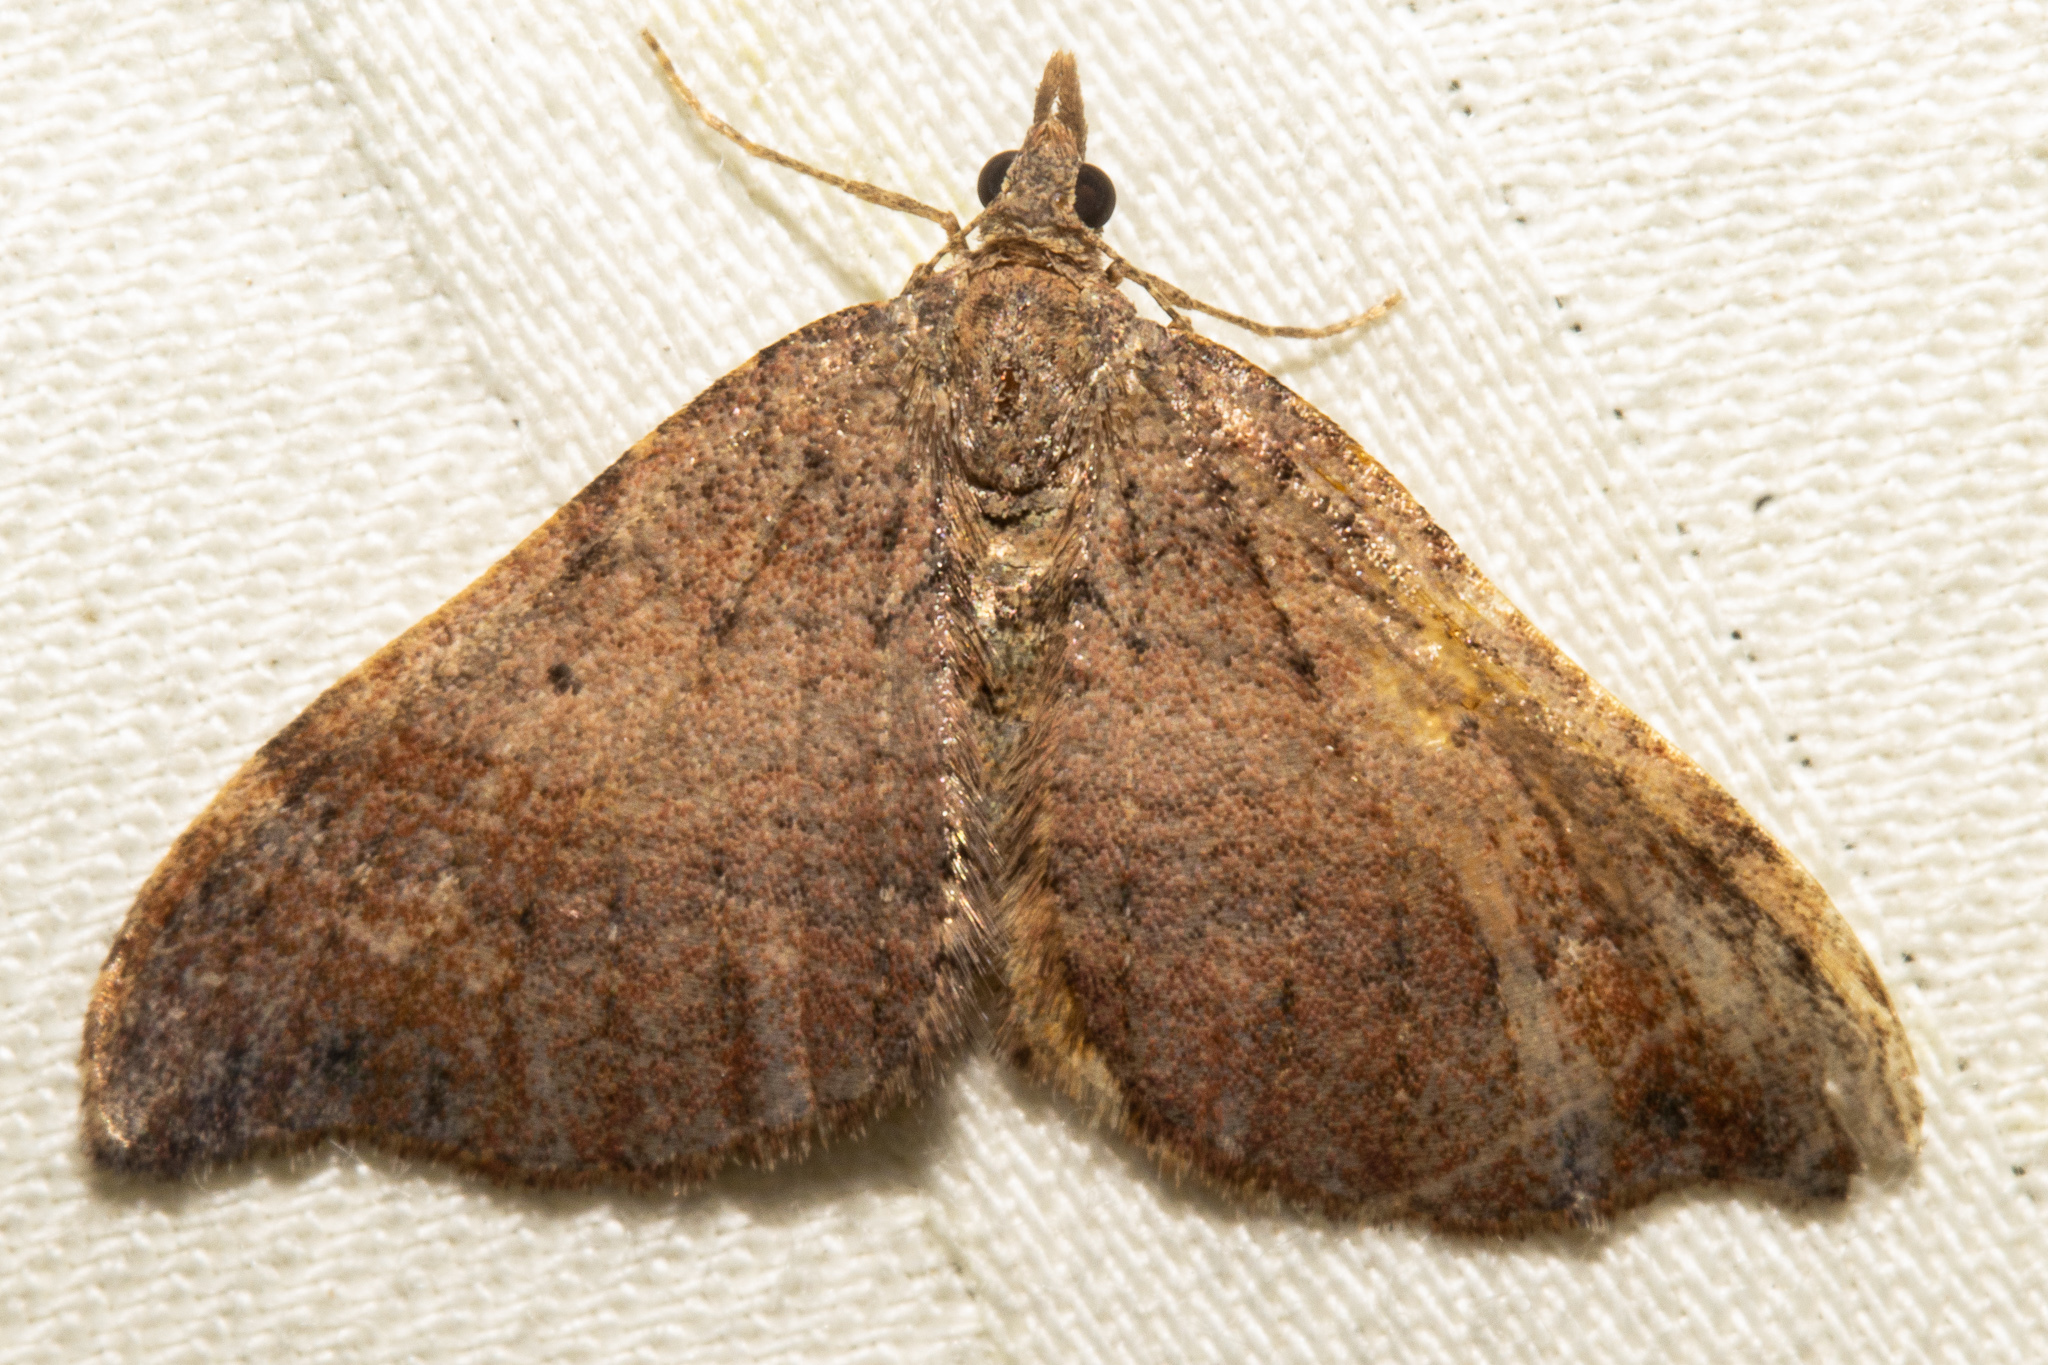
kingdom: Animalia
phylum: Arthropoda
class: Insecta
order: Lepidoptera
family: Geometridae
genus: Homodotis
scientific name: Homodotis megaspilata
